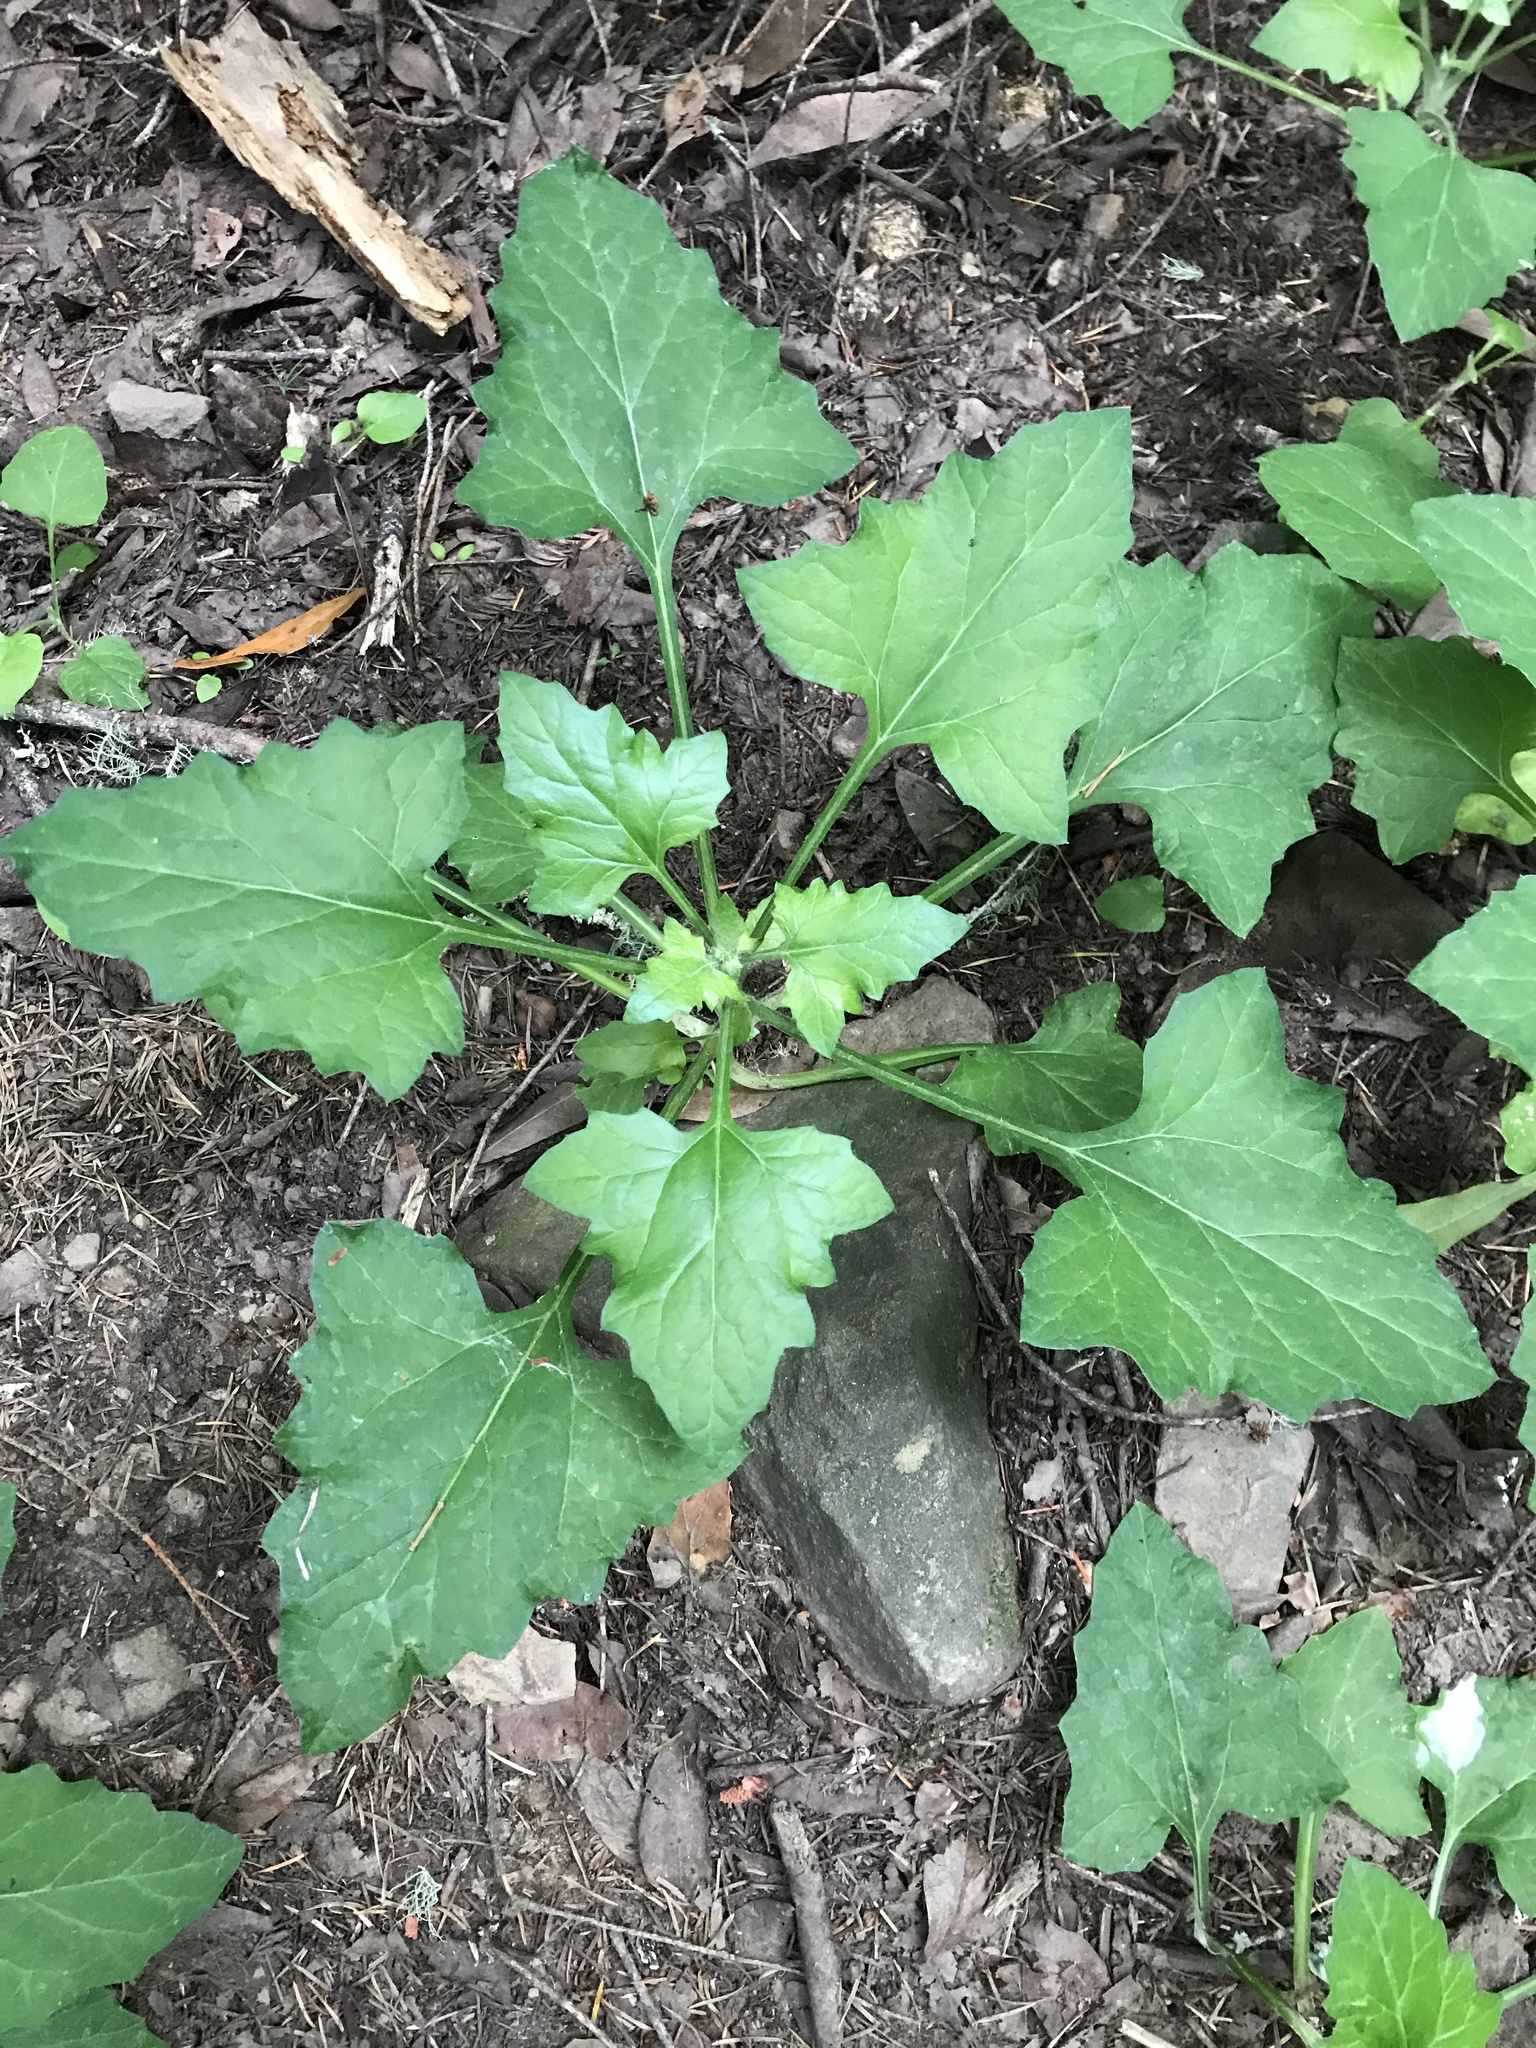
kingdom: Plantae
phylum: Tracheophyta
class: Magnoliopsida
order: Asterales
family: Asteraceae
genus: Adenocaulon
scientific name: Adenocaulon bicolor
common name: Trailplant
